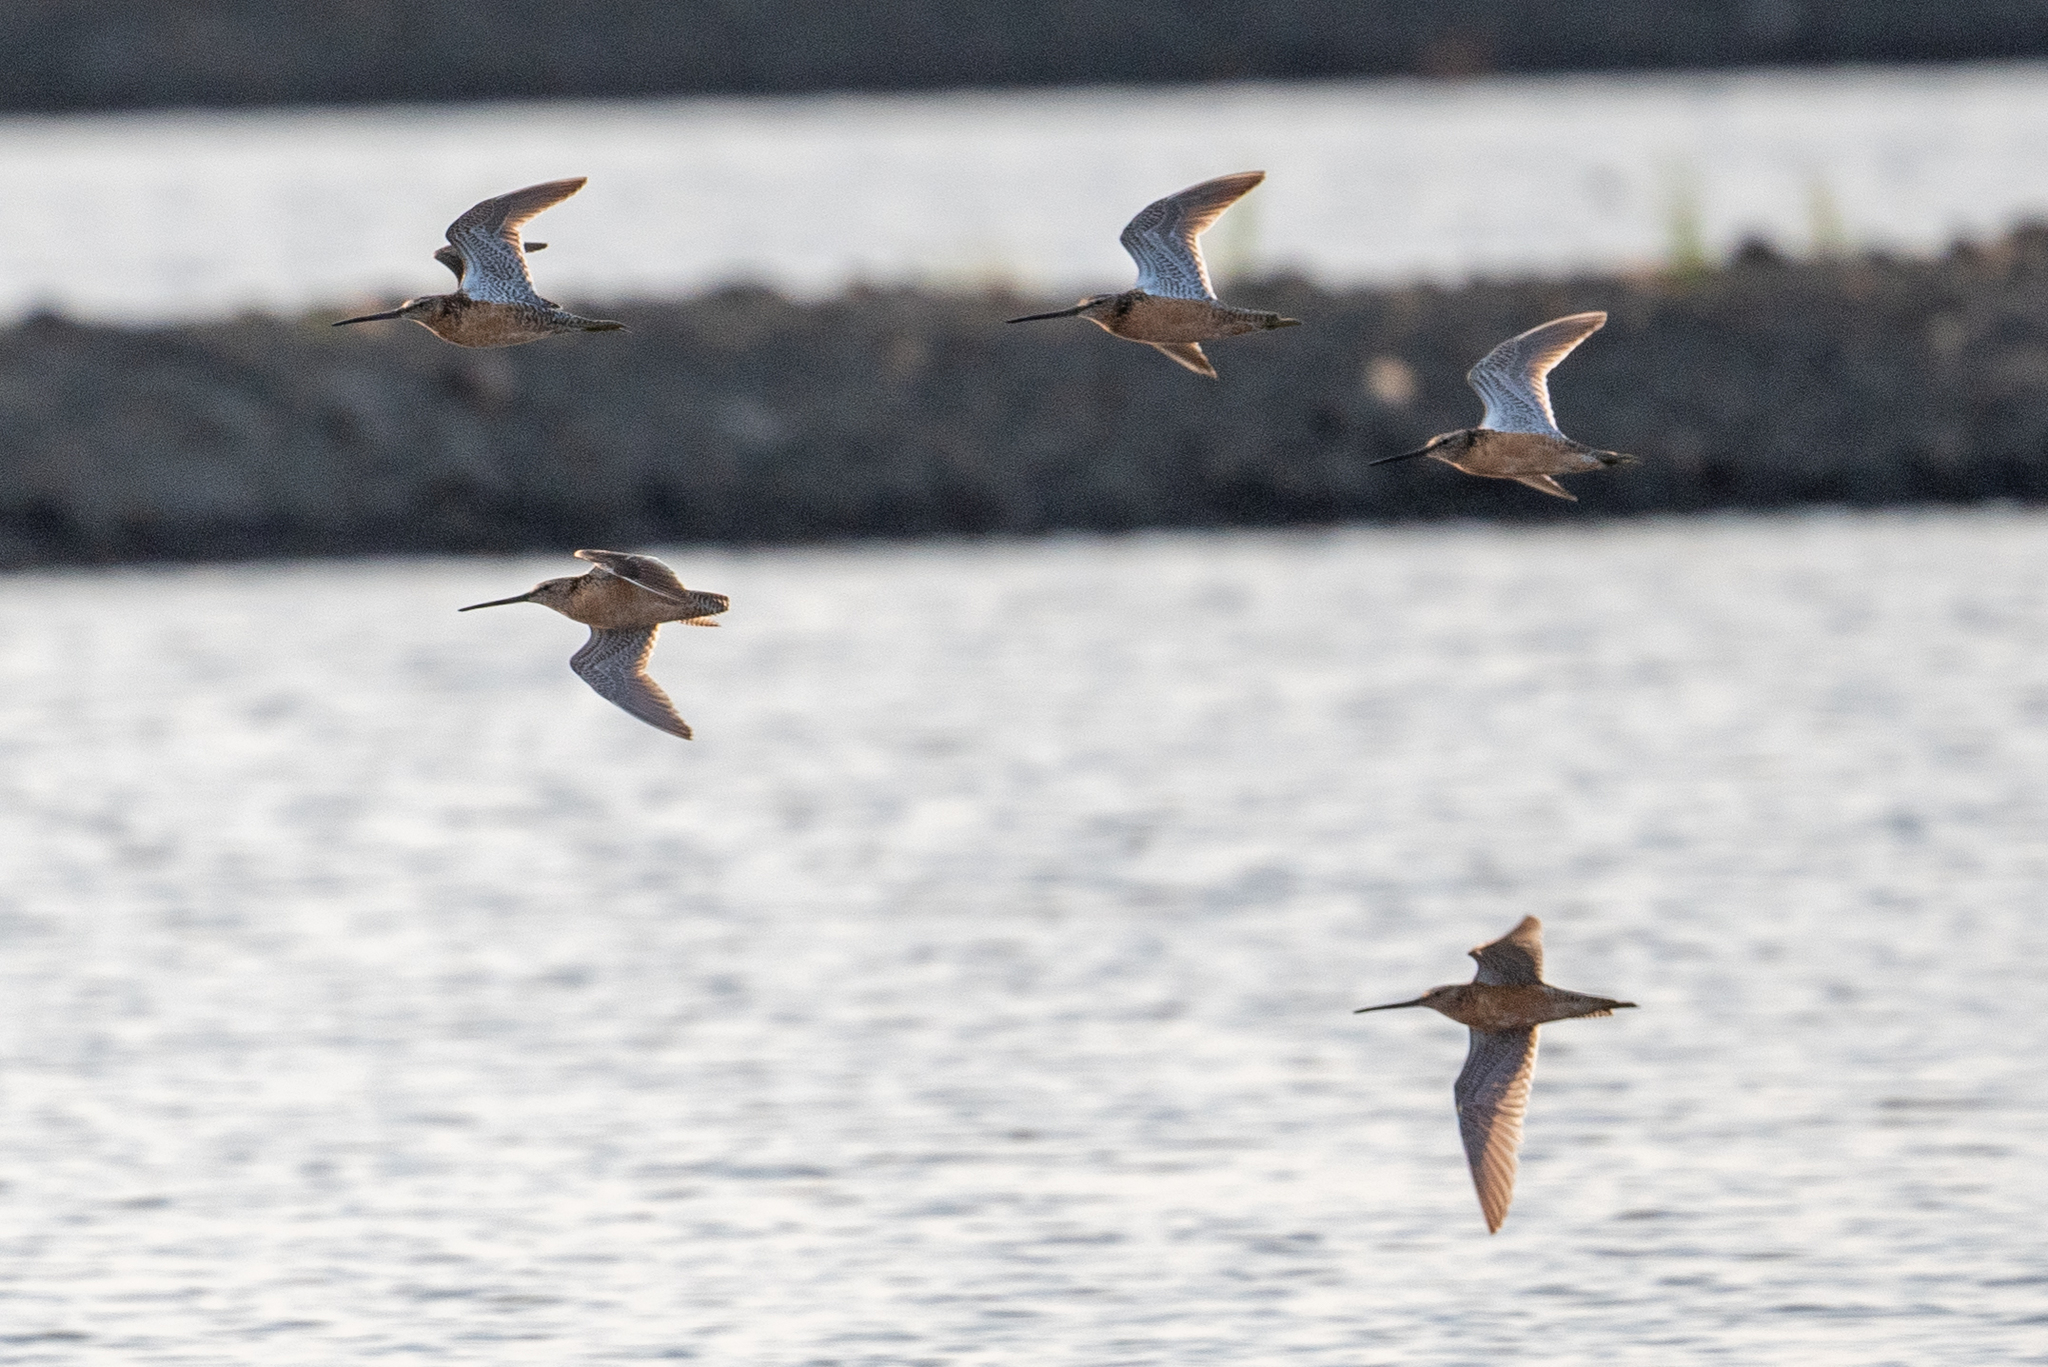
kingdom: Animalia
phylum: Chordata
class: Aves
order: Charadriiformes
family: Scolopacidae
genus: Limnodromus
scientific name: Limnodromus scolopaceus
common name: Long-billed dowitcher
